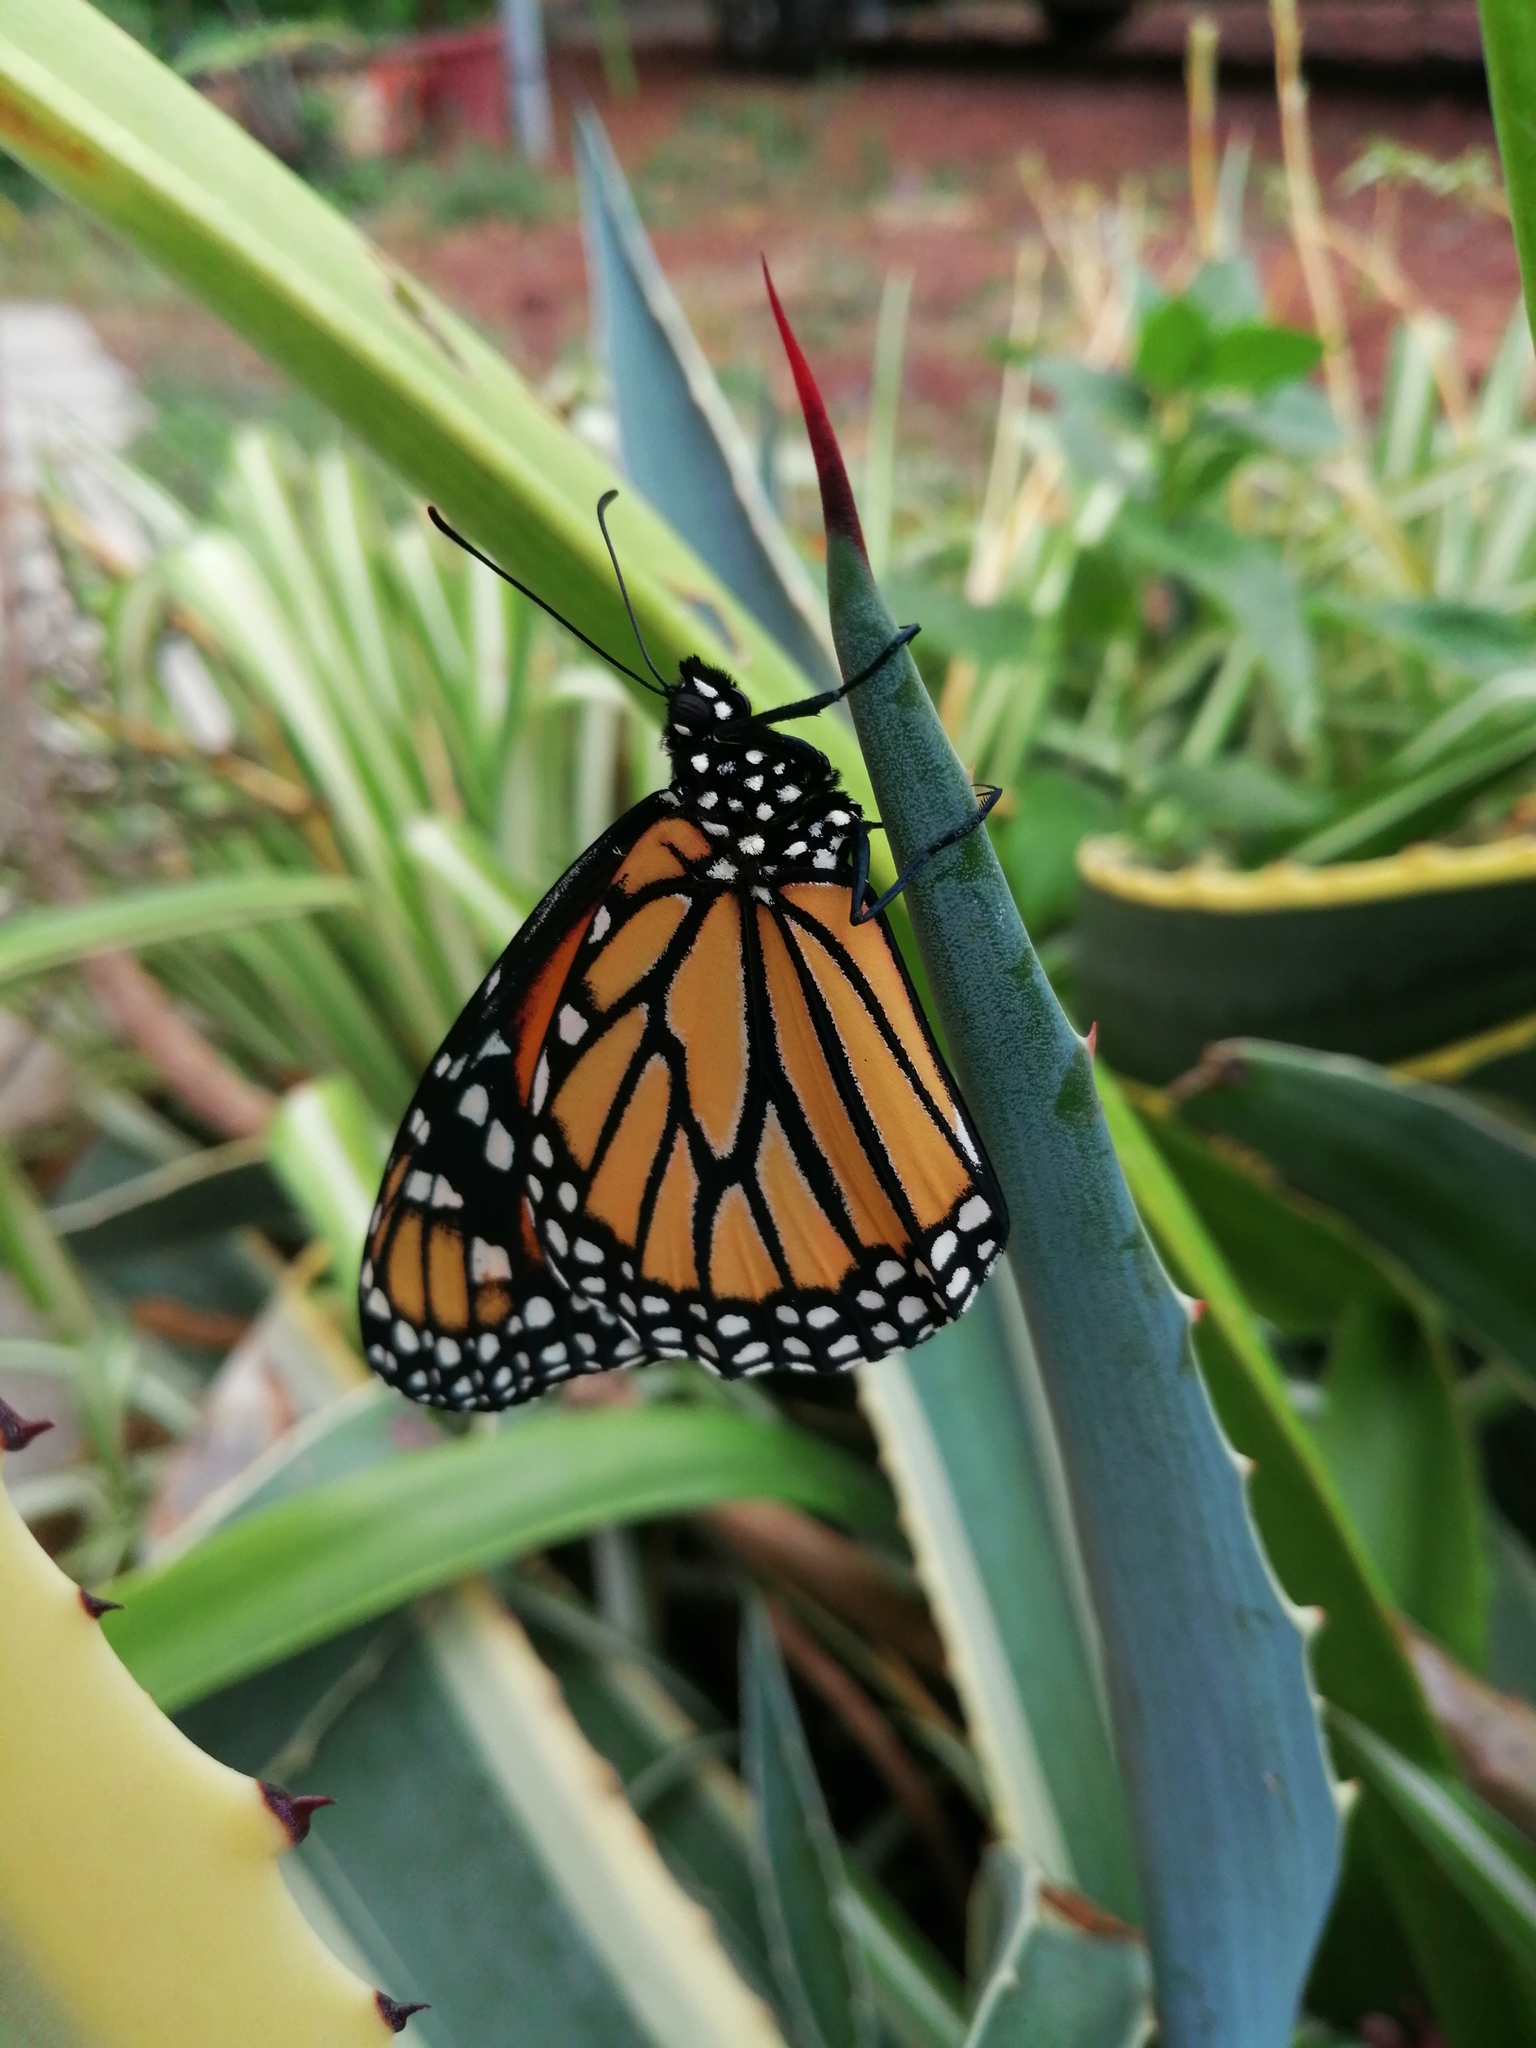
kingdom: Animalia
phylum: Arthropoda
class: Insecta
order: Lepidoptera
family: Nymphalidae
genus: Danaus
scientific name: Danaus plexippus
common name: Monarch
